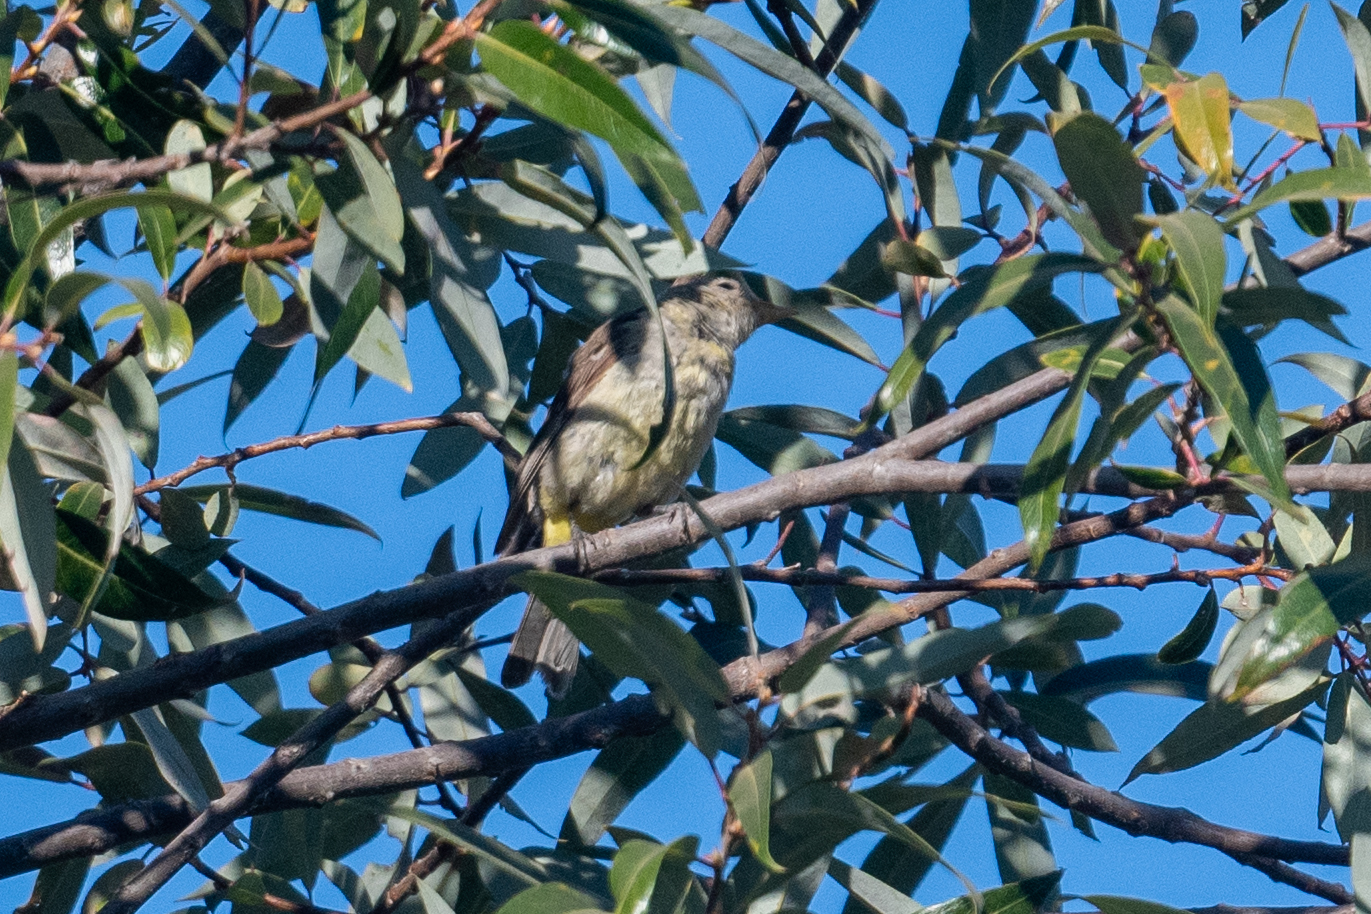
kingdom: Animalia
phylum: Chordata
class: Aves
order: Passeriformes
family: Cardinalidae
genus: Piranga
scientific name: Piranga ludoviciana
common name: Western tanager
